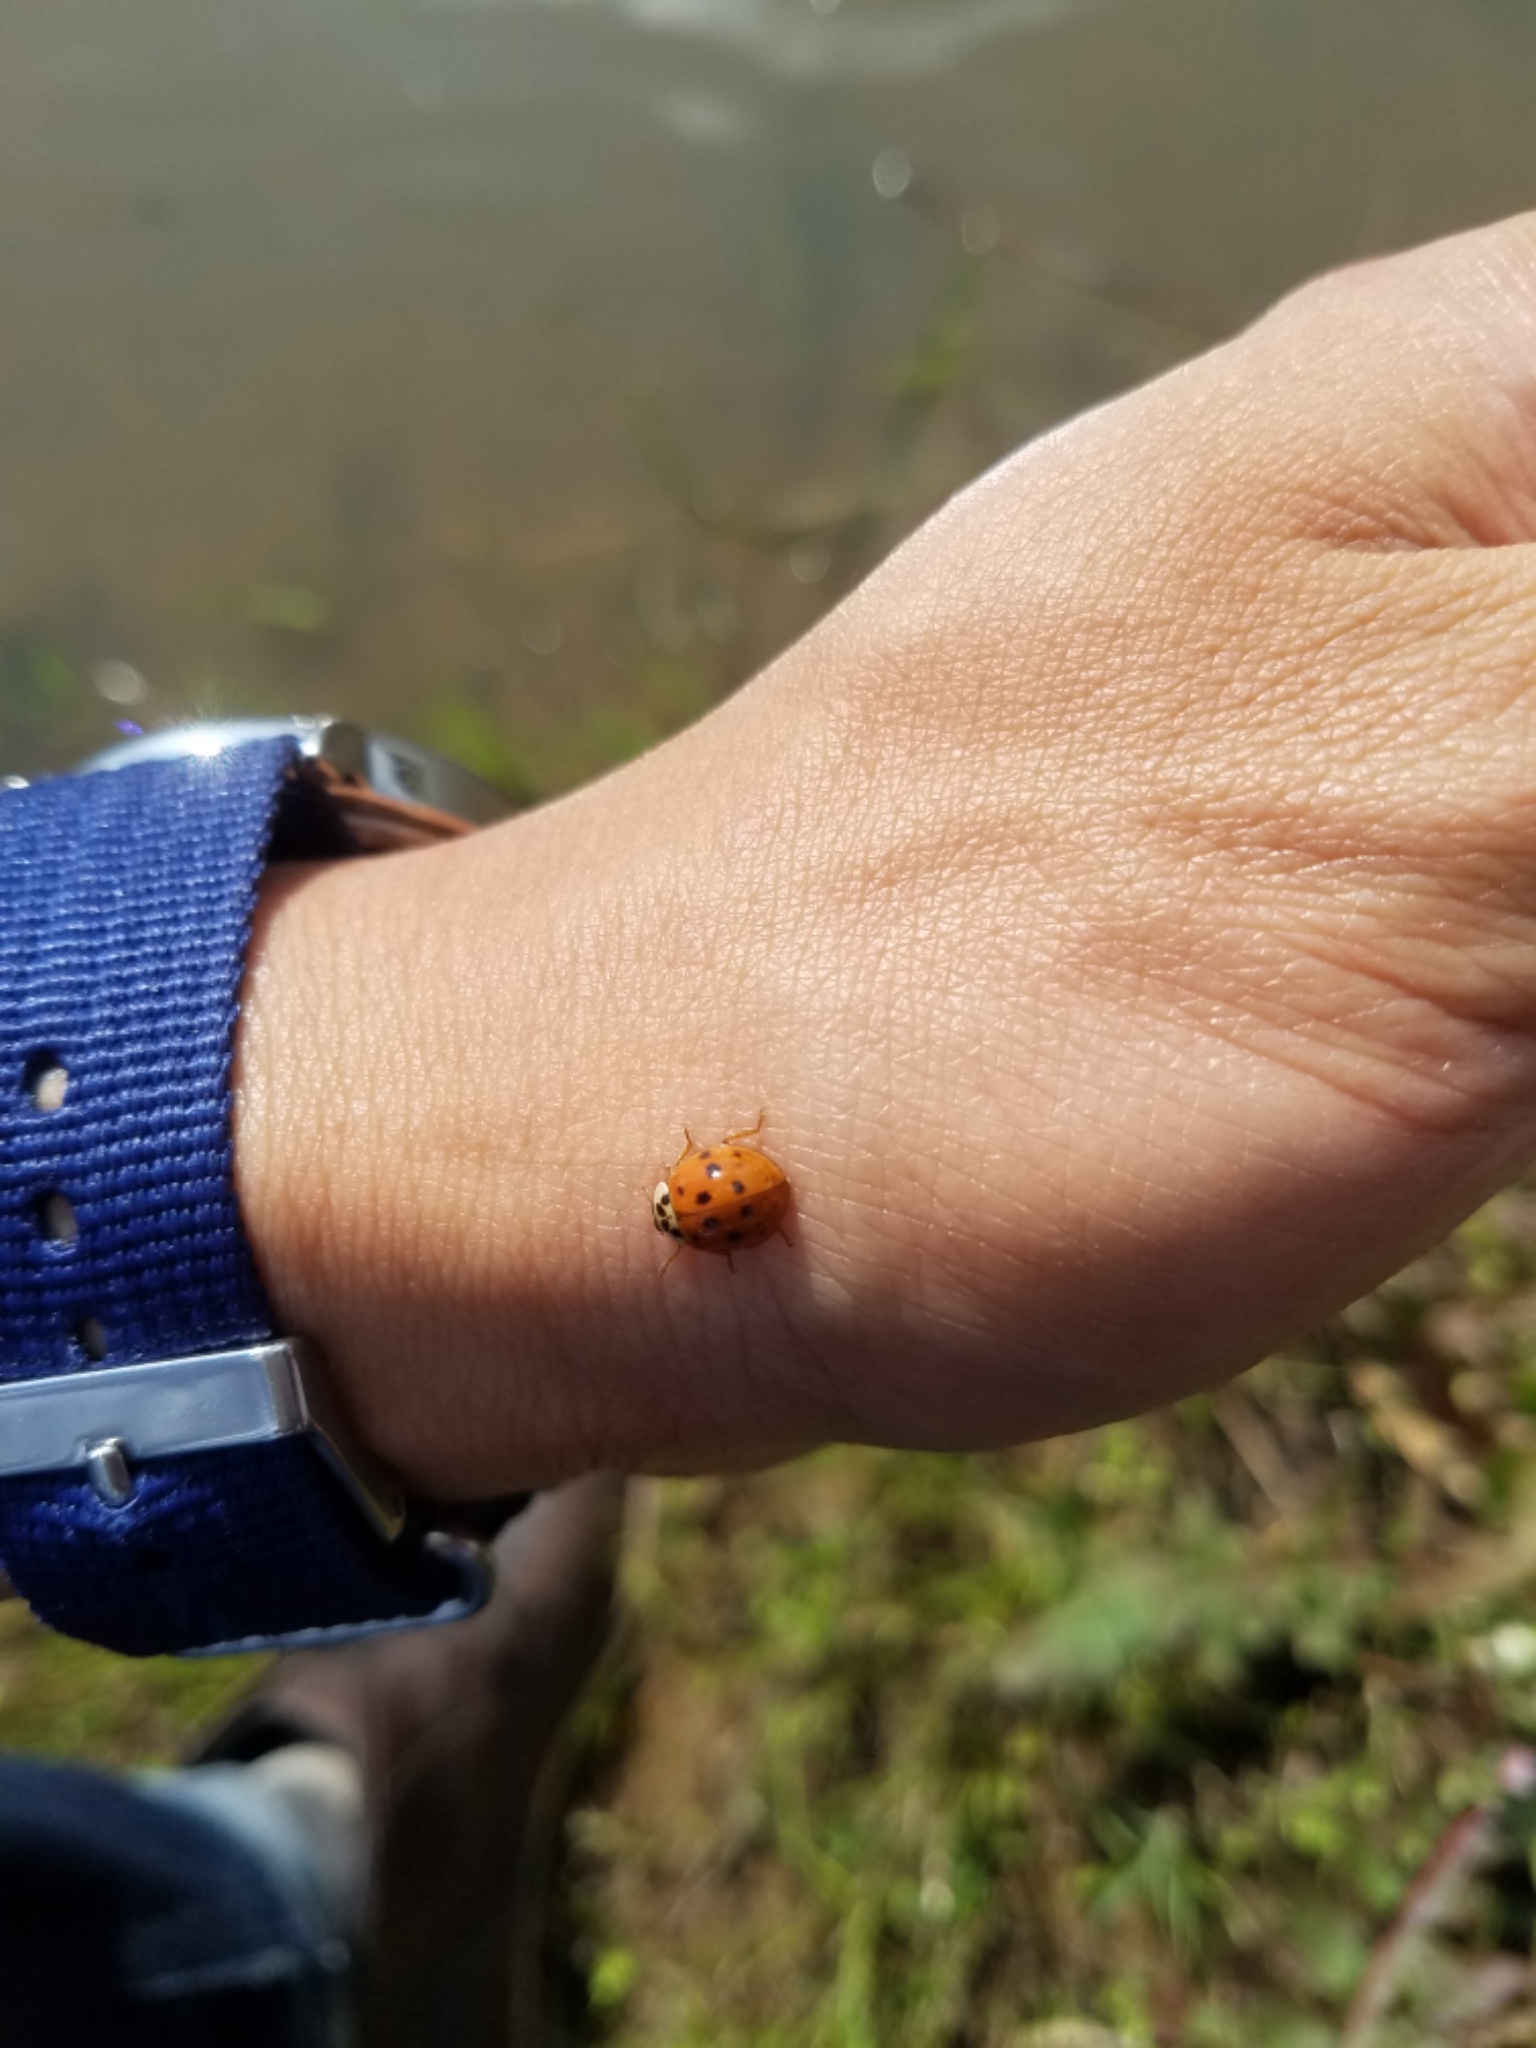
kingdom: Animalia
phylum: Arthropoda
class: Insecta
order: Coleoptera
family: Coccinellidae
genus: Harmonia
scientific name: Harmonia axyridis
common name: Harlequin ladybird
